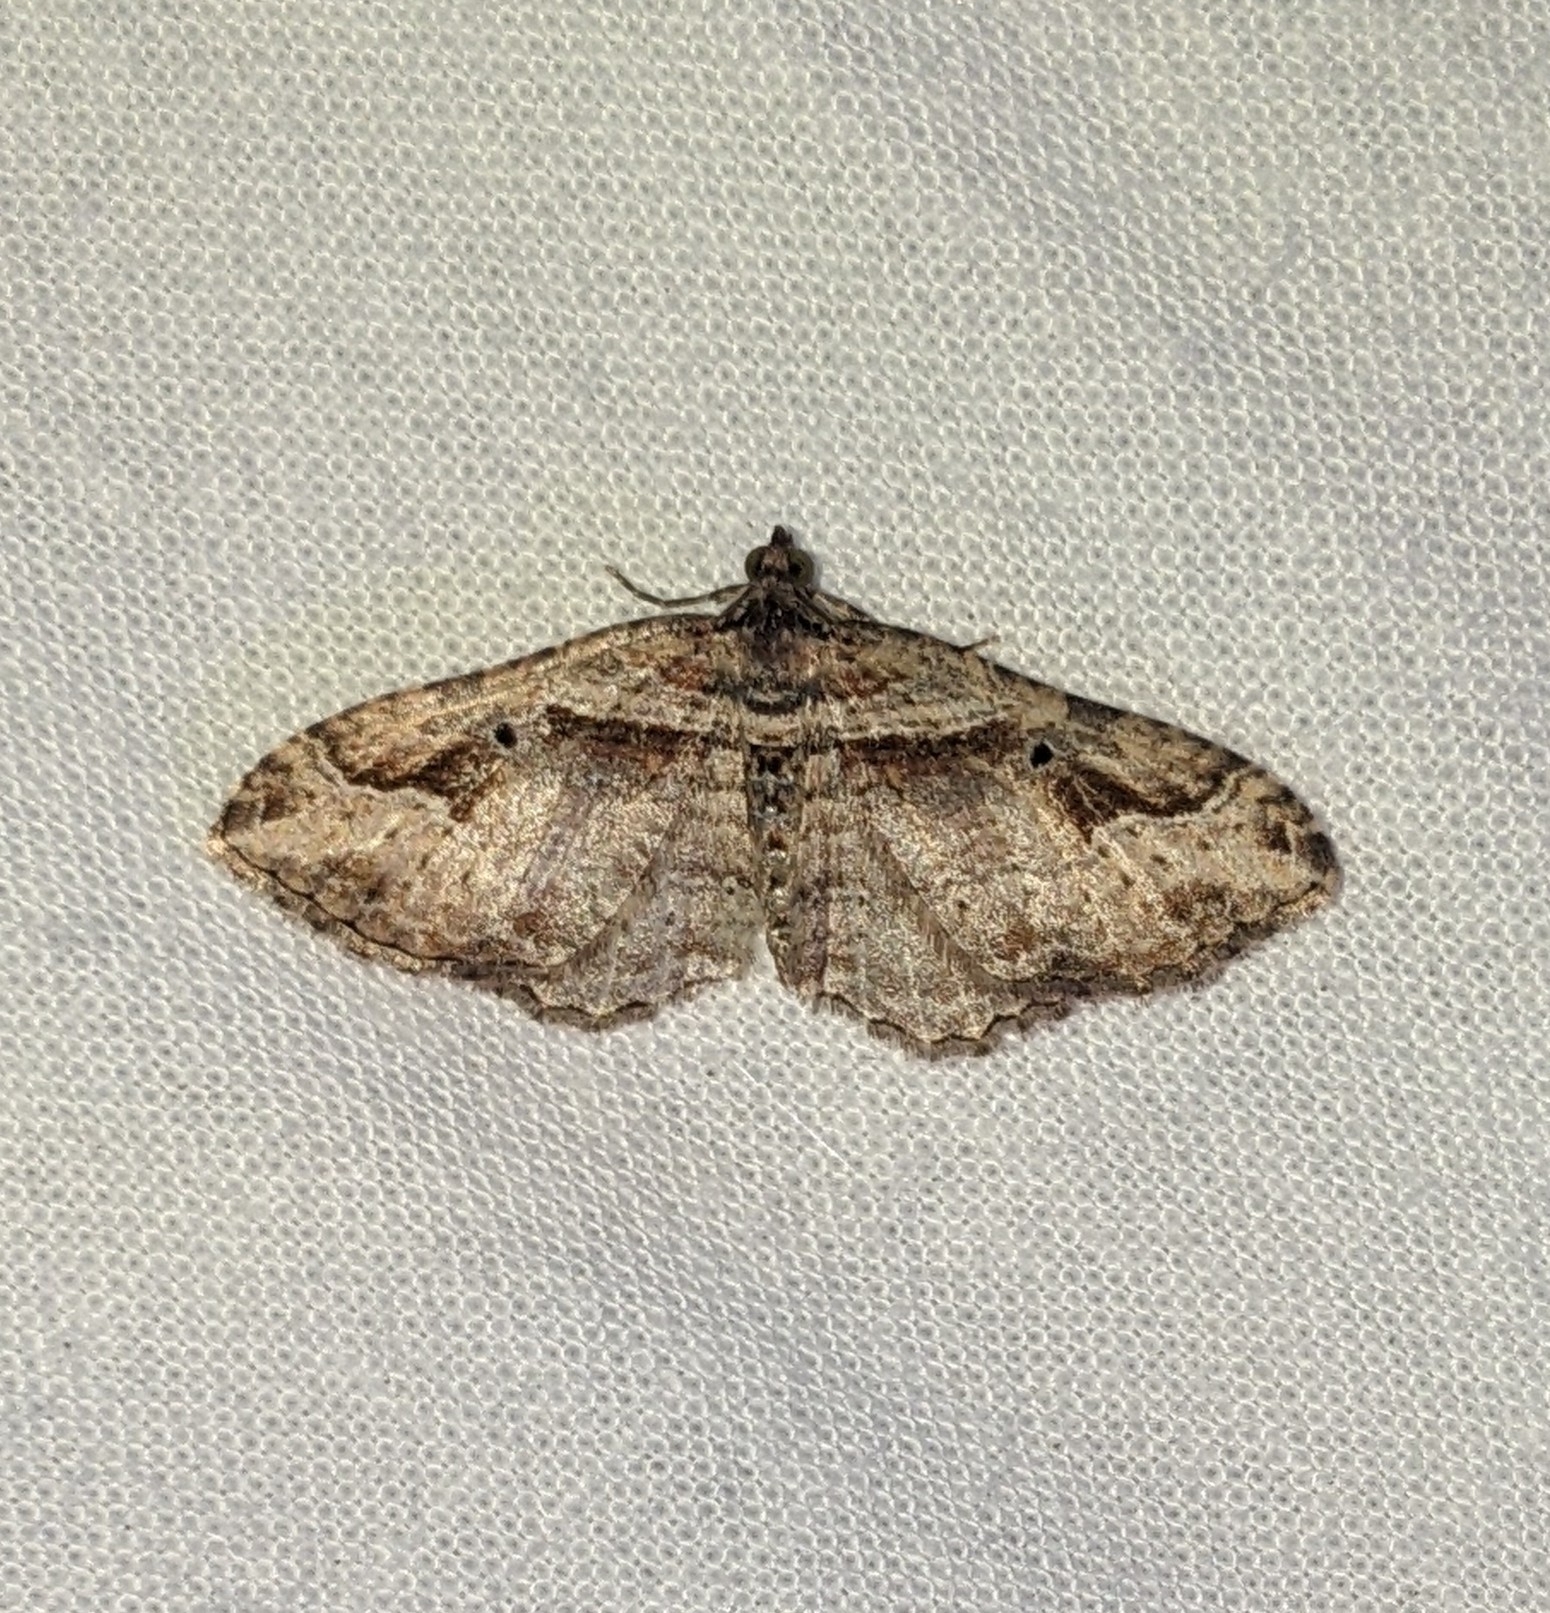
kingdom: Animalia
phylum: Arthropoda
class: Insecta
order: Lepidoptera
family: Geometridae
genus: Costaconvexa
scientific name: Costaconvexa centrostrigaria
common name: Bent-line carpet
